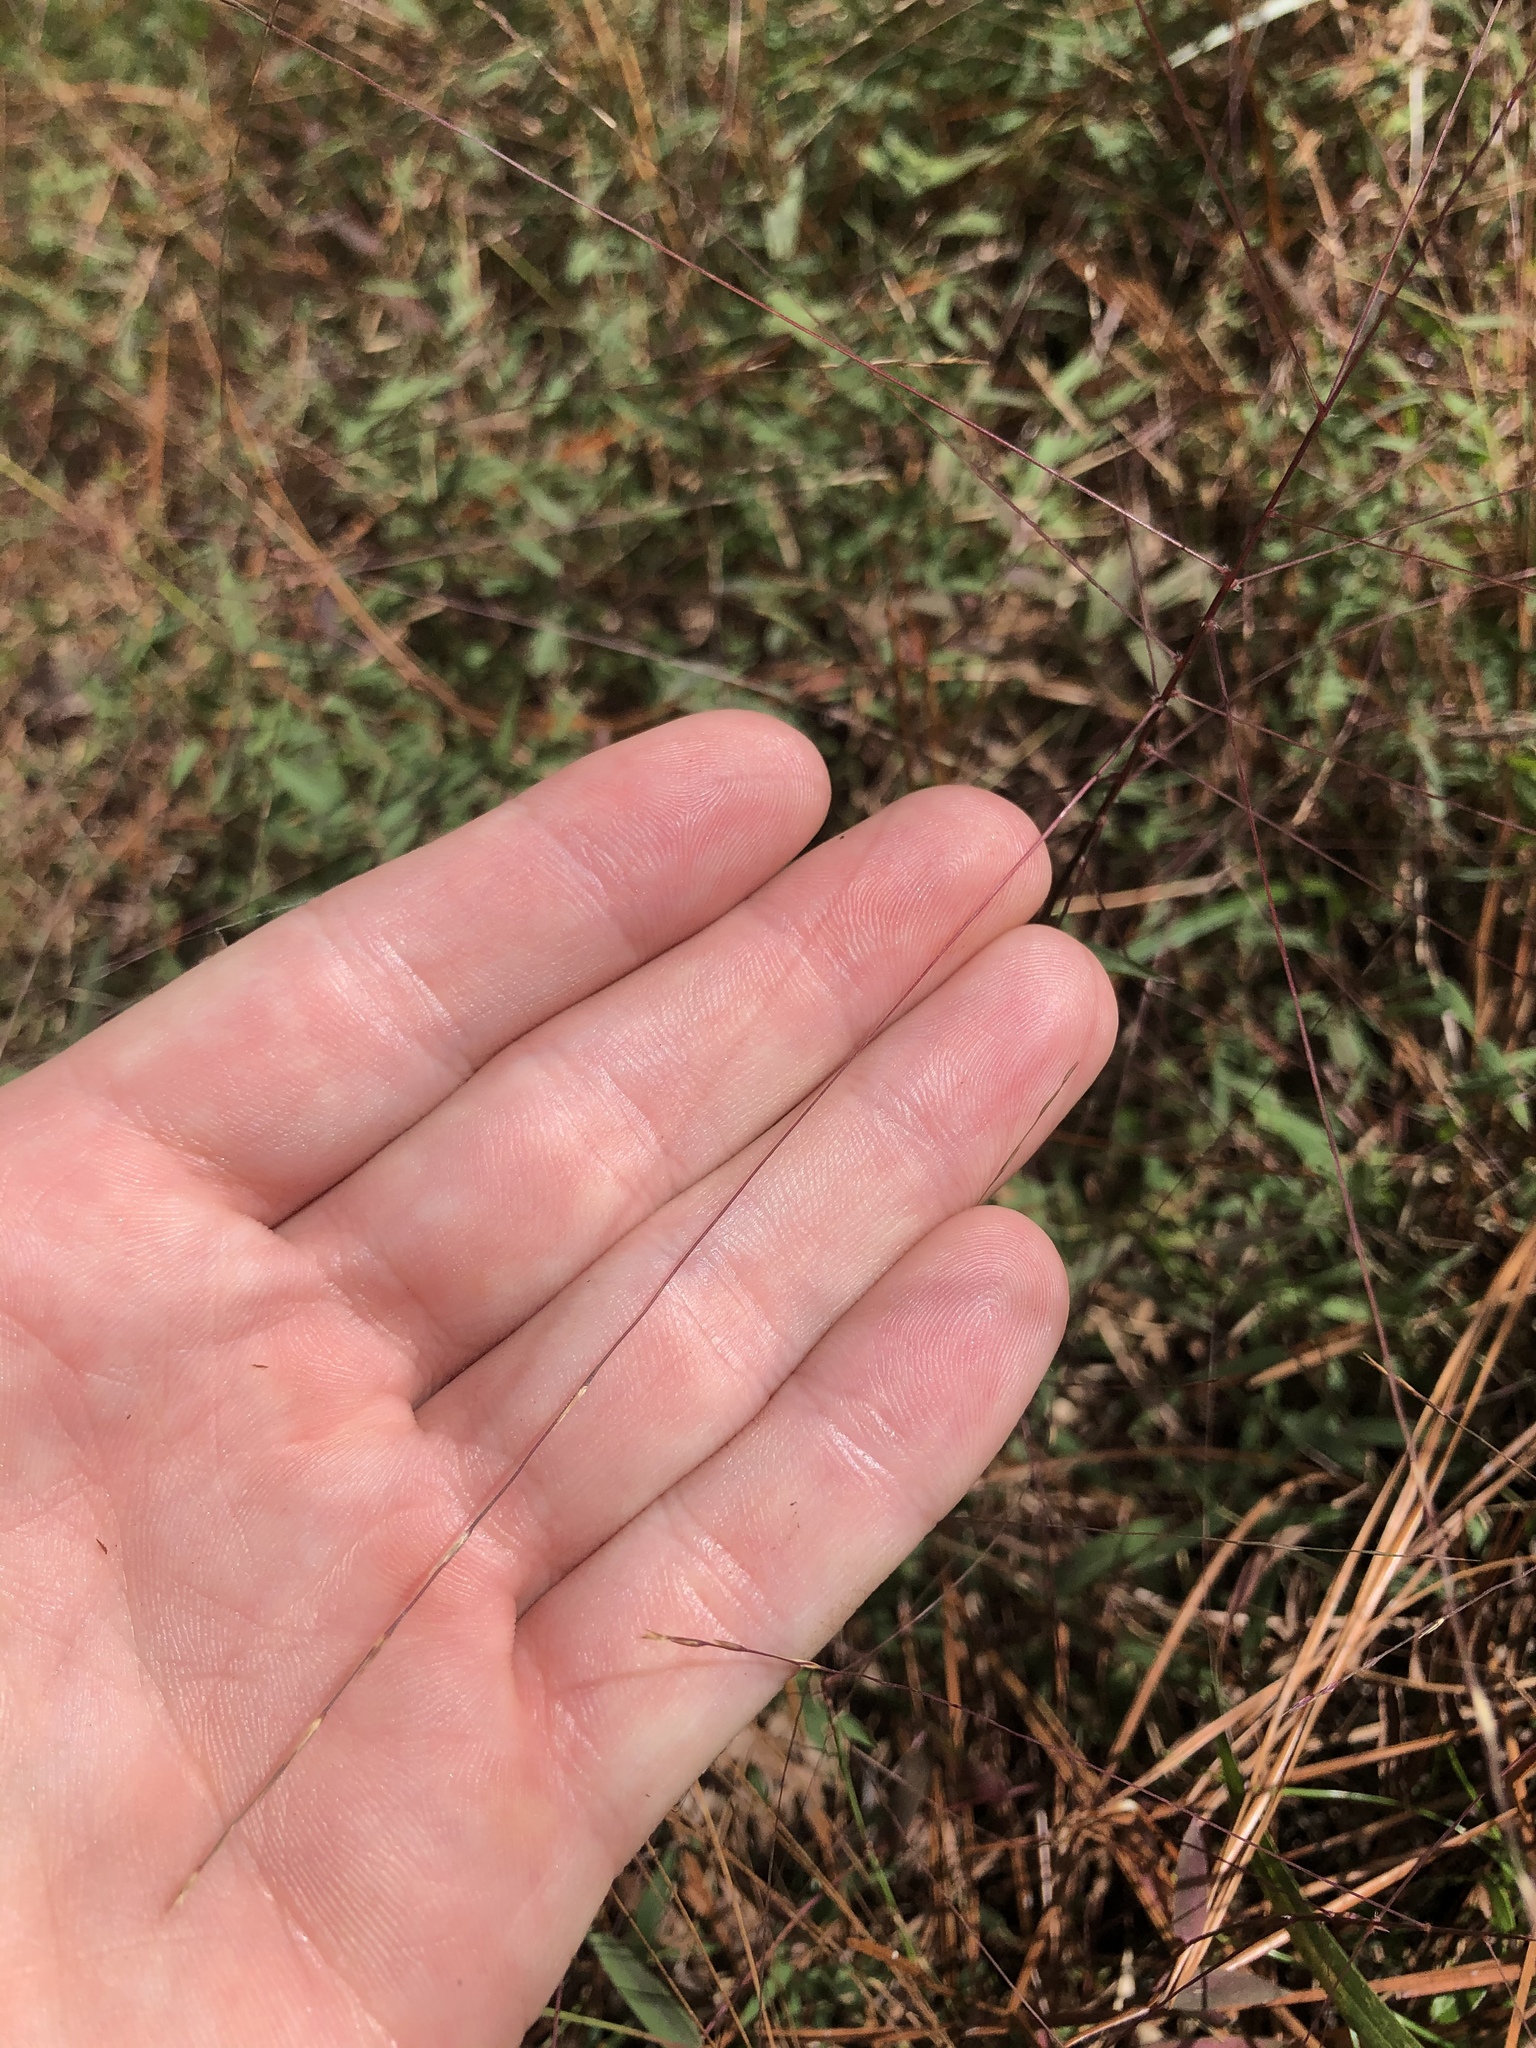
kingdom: Plantae
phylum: Tracheophyta
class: Liliopsida
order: Poales
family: Poaceae
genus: Gymnopogon
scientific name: Gymnopogon brevifolius
